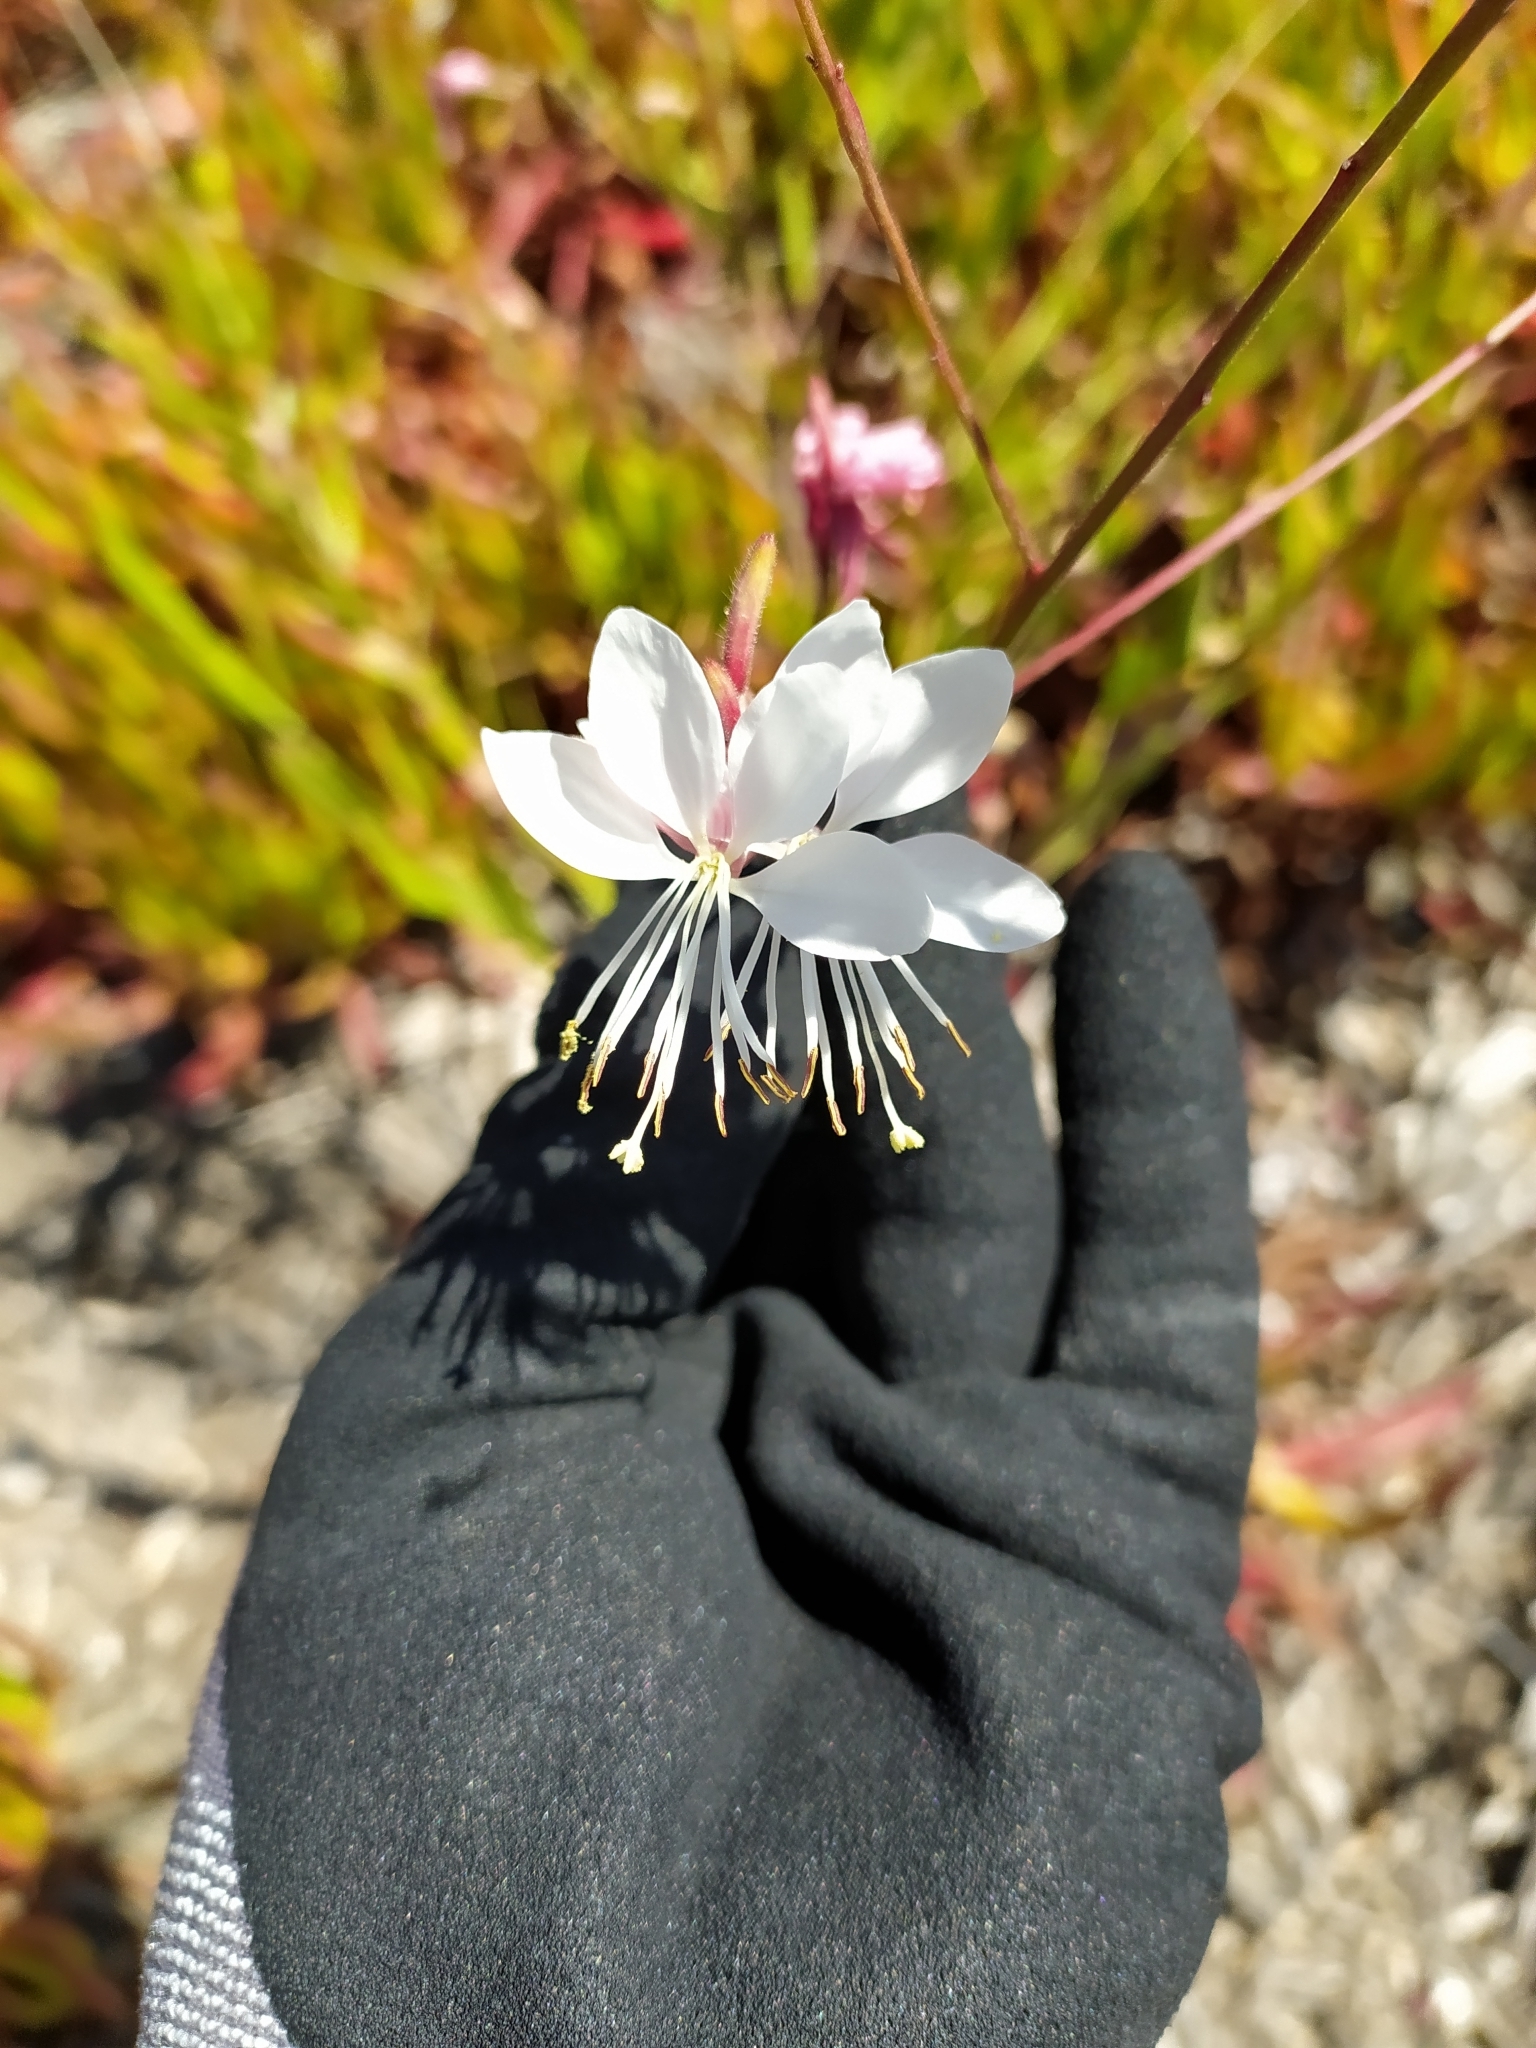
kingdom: Plantae
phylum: Tracheophyta
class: Magnoliopsida
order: Myrtales
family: Onagraceae
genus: Oenothera
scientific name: Oenothera lindheimeri
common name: Lindheimer's beeblossom
